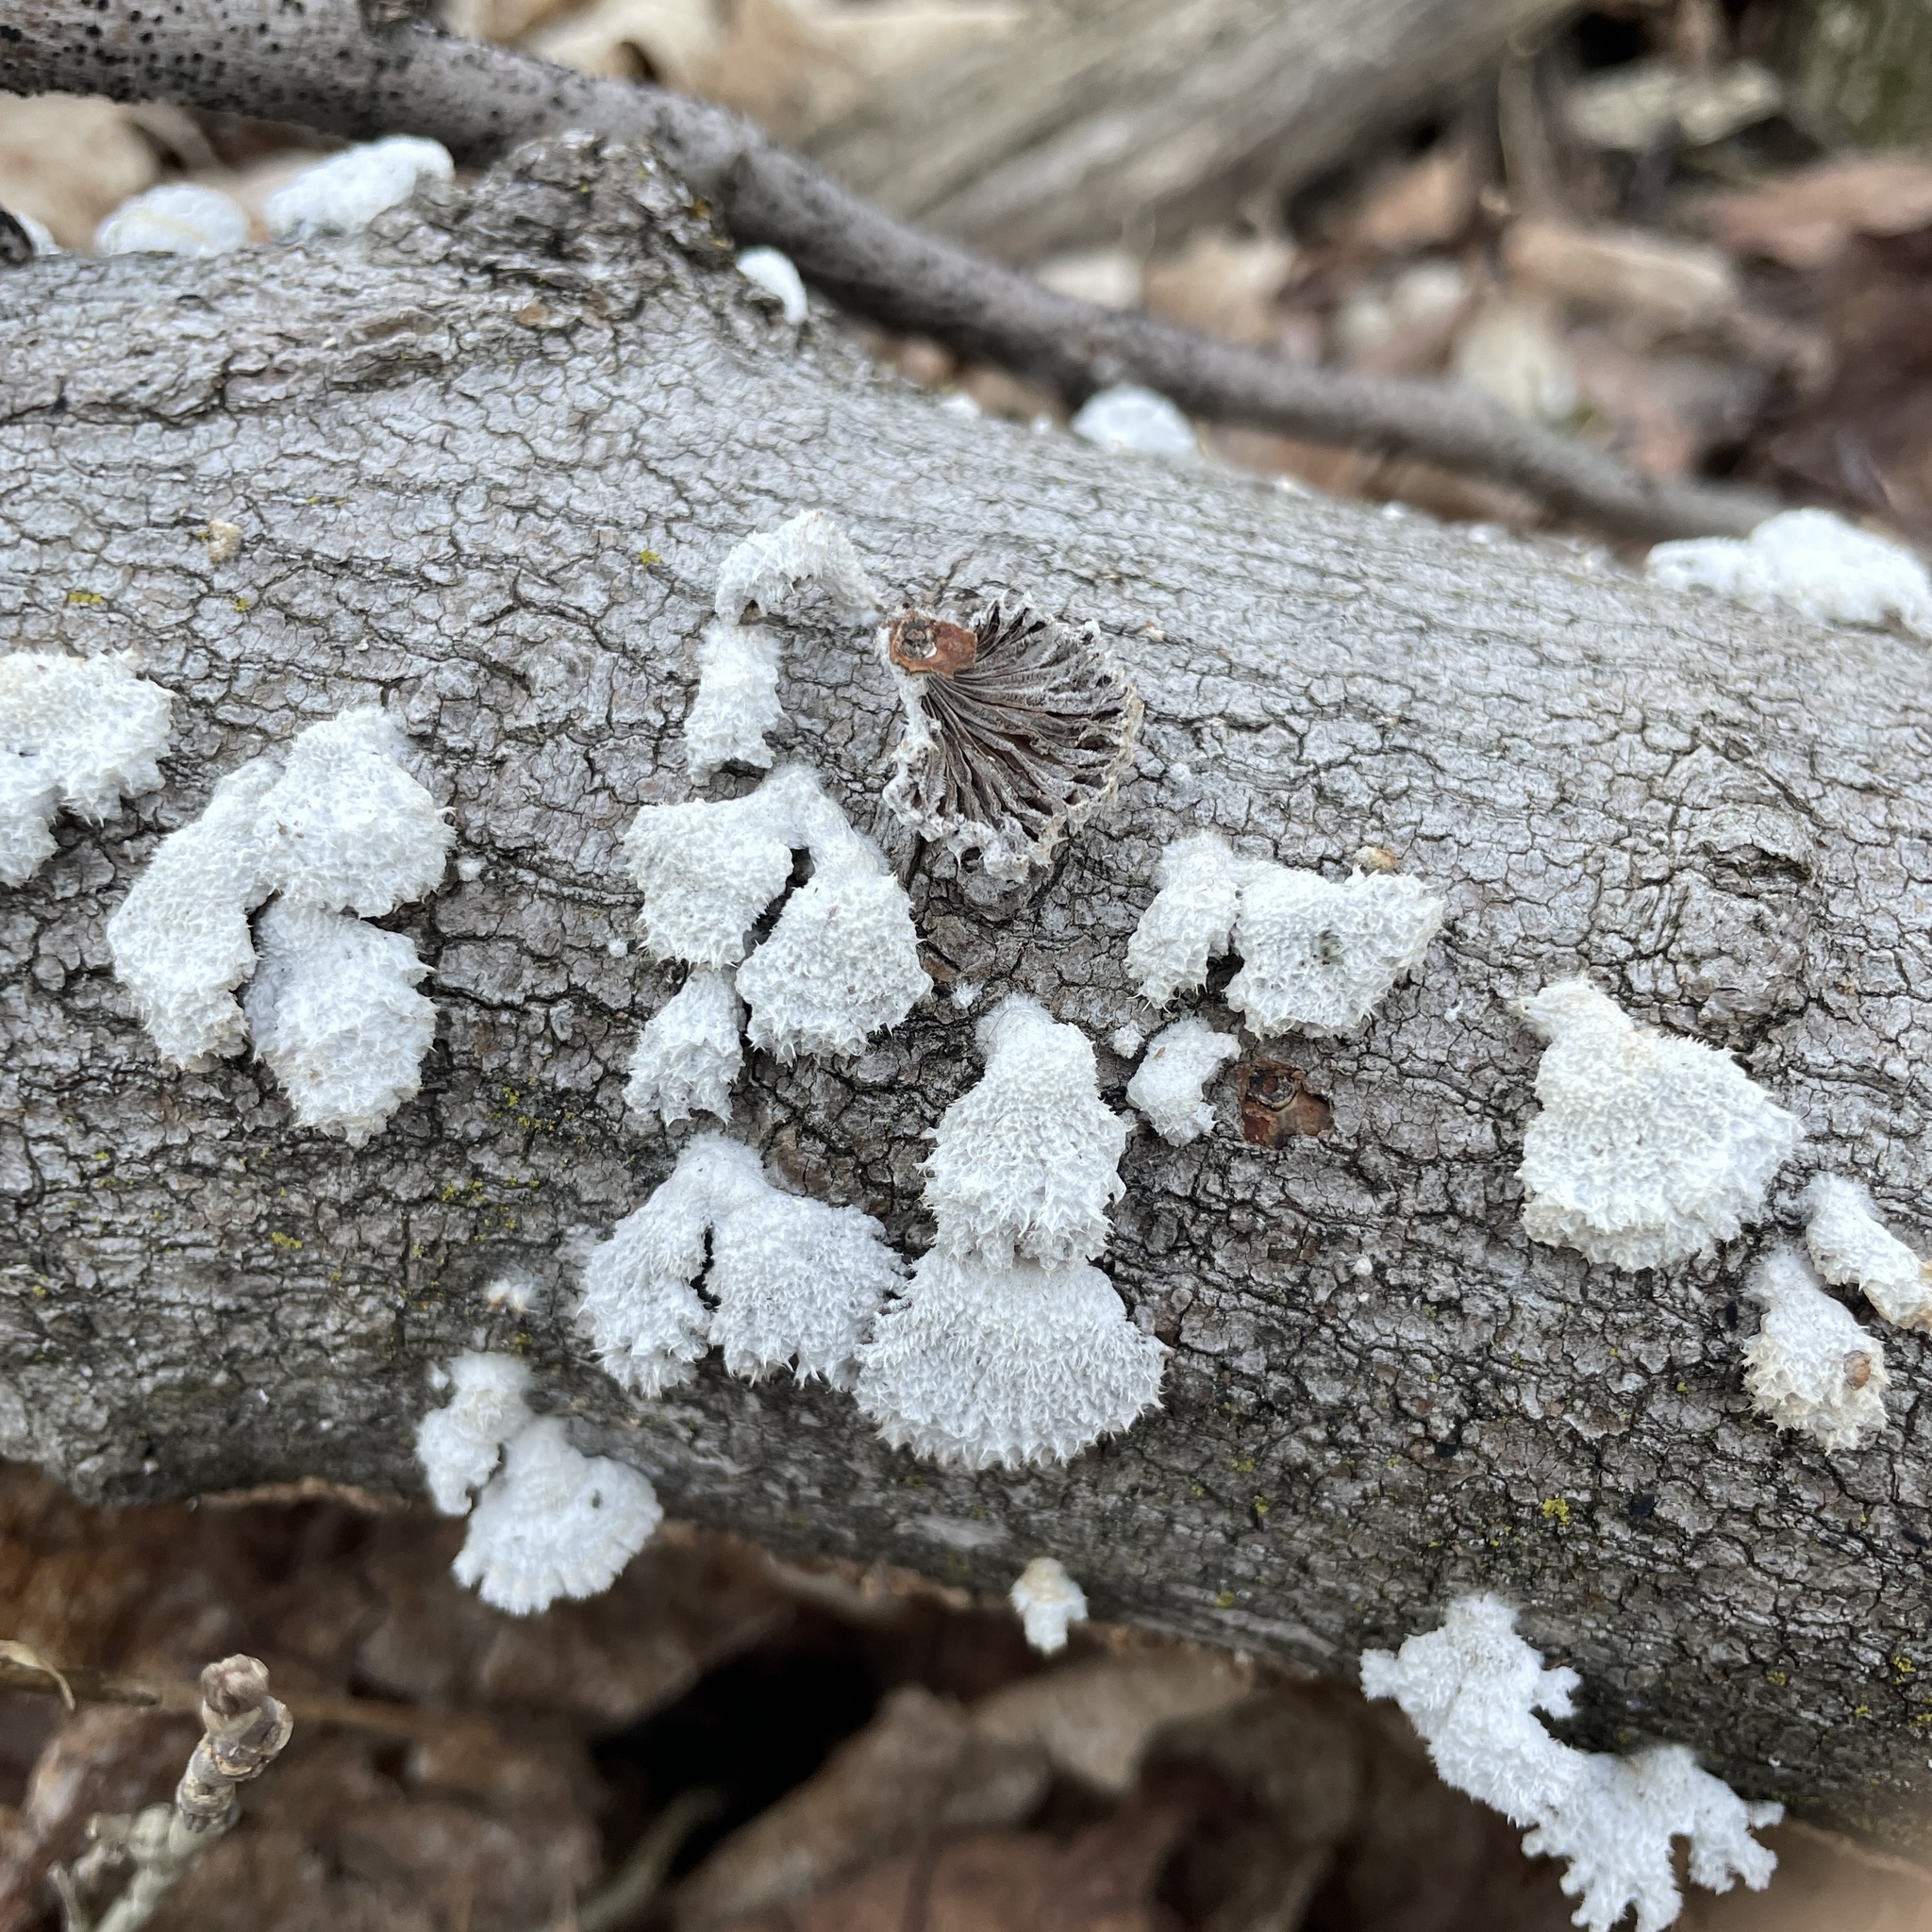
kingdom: Fungi
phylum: Basidiomycota
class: Agaricomycetes
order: Agaricales
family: Schizophyllaceae
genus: Schizophyllum
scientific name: Schizophyllum commune
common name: Common porecrust
